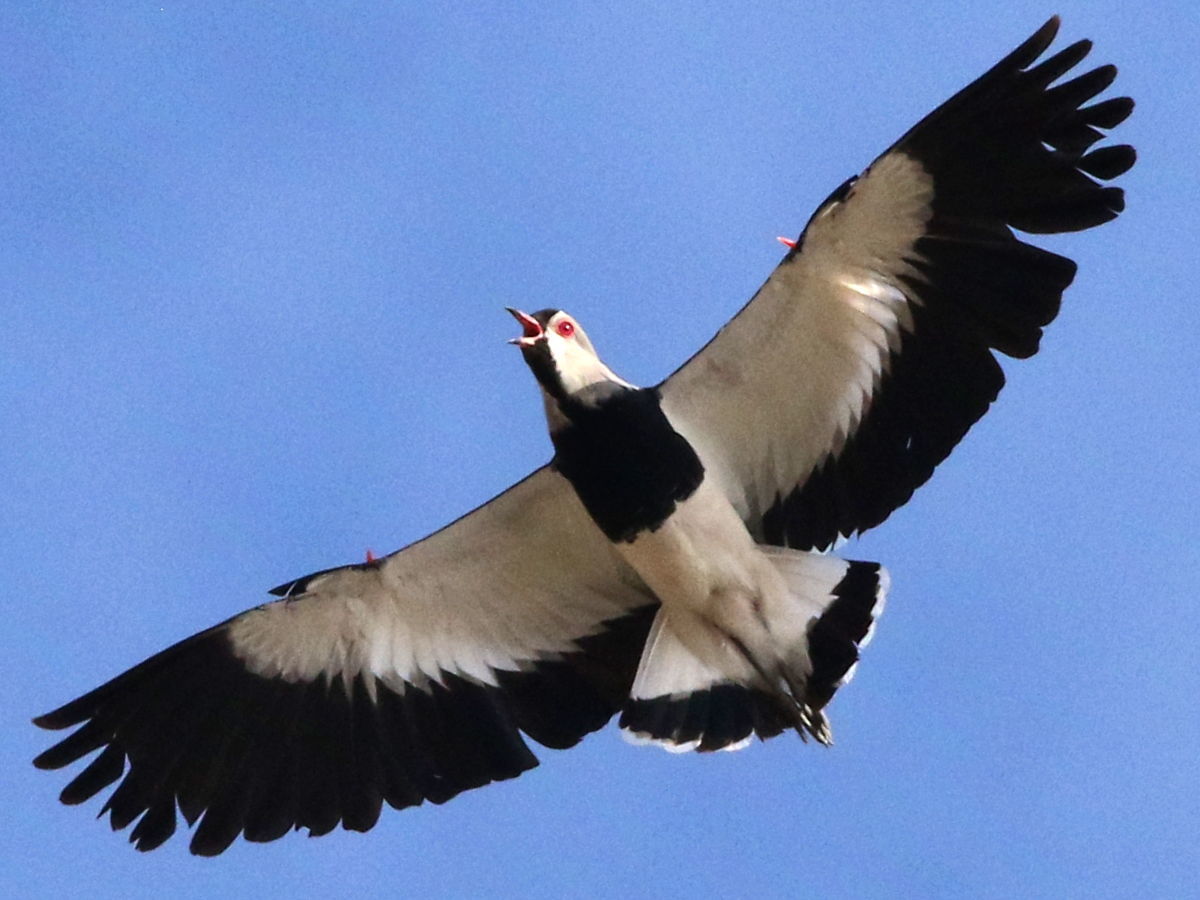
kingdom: Animalia
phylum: Chordata
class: Aves
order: Charadriiformes
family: Charadriidae
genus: Vanellus
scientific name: Vanellus chilensis
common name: Southern lapwing
